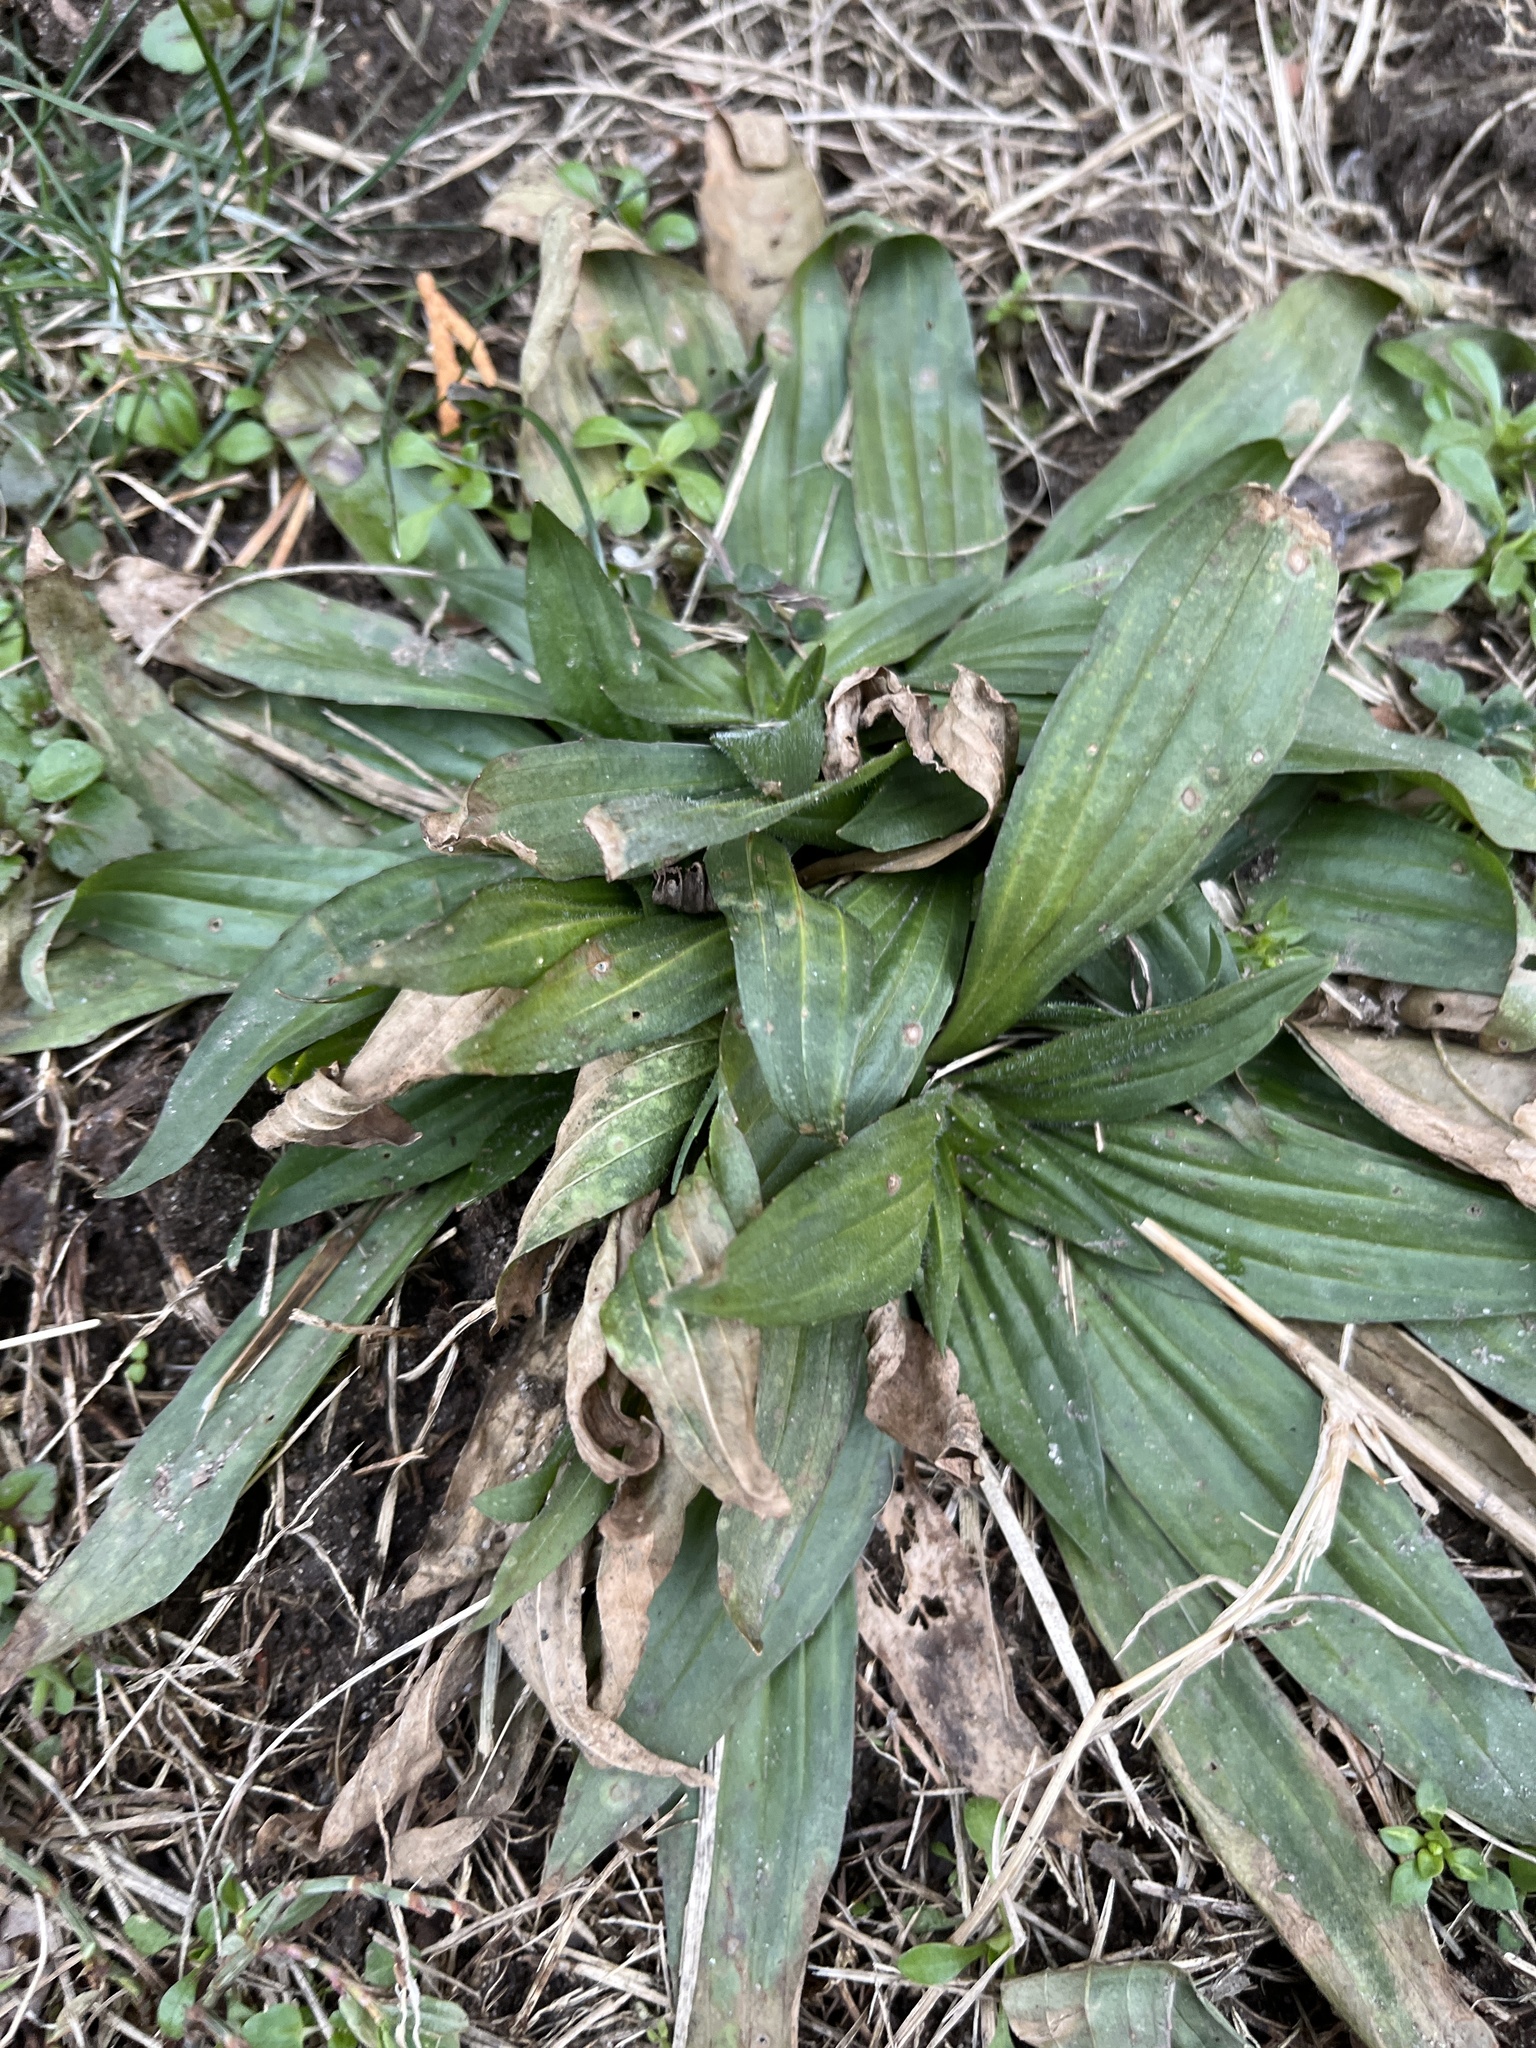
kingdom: Plantae
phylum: Tracheophyta
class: Magnoliopsida
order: Lamiales
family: Plantaginaceae
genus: Plantago
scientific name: Plantago lanceolata
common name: Ribwort plantain
